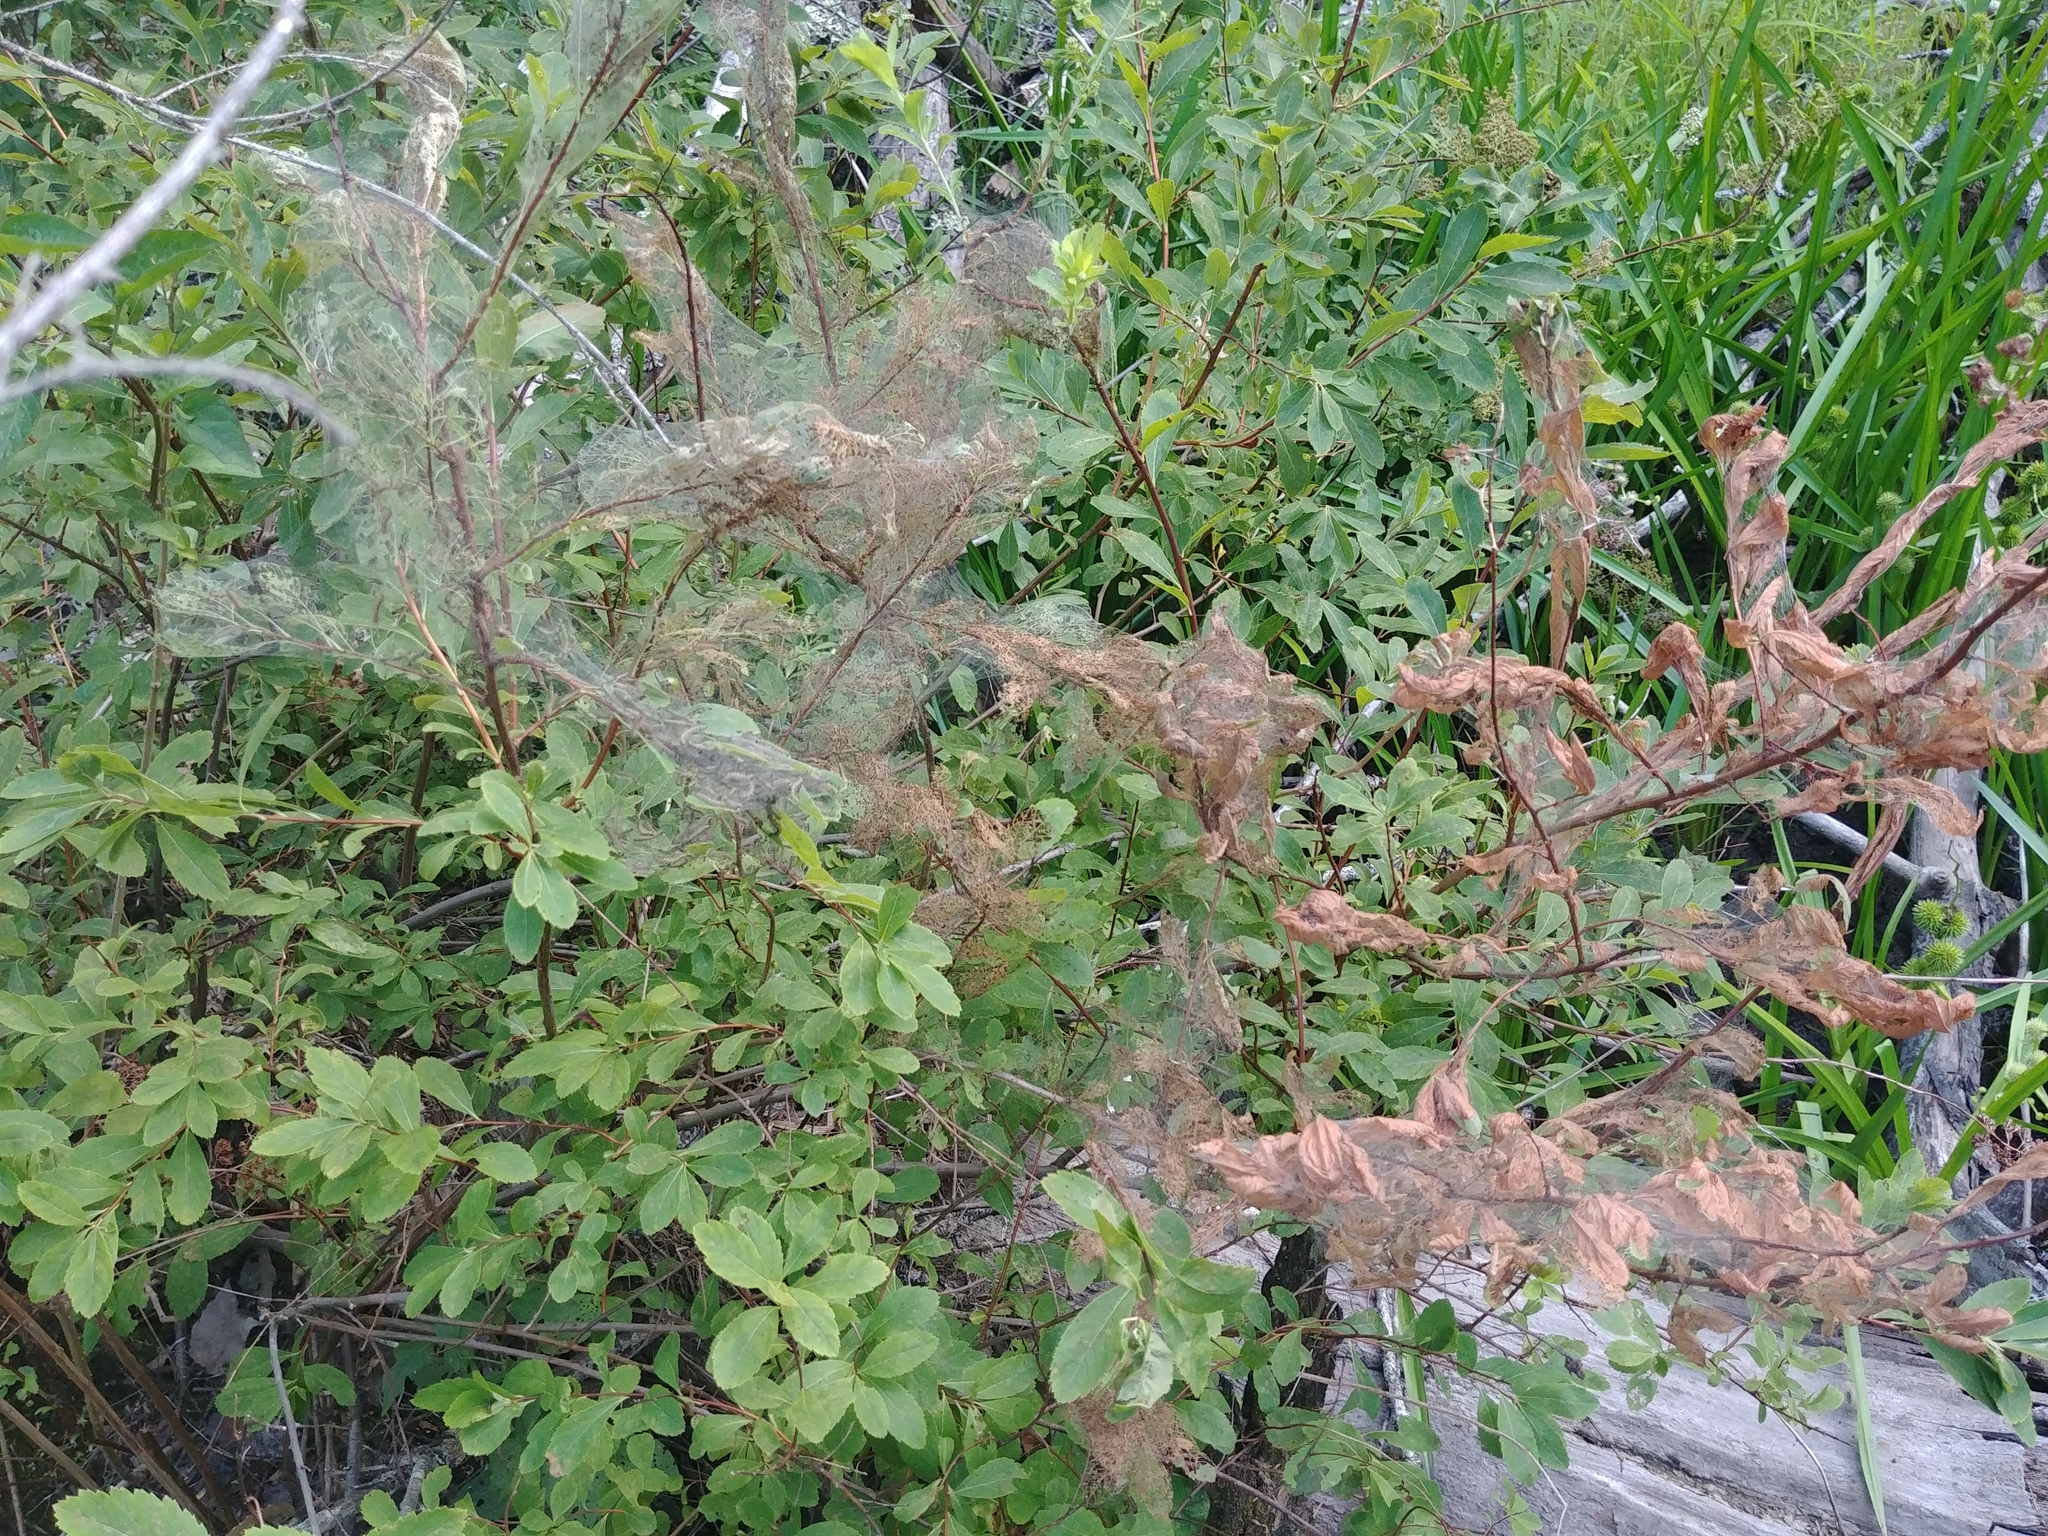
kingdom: Animalia
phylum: Arthropoda
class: Insecta
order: Lepidoptera
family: Erebidae
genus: Hyphantria
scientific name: Hyphantria cunea
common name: American white moth
